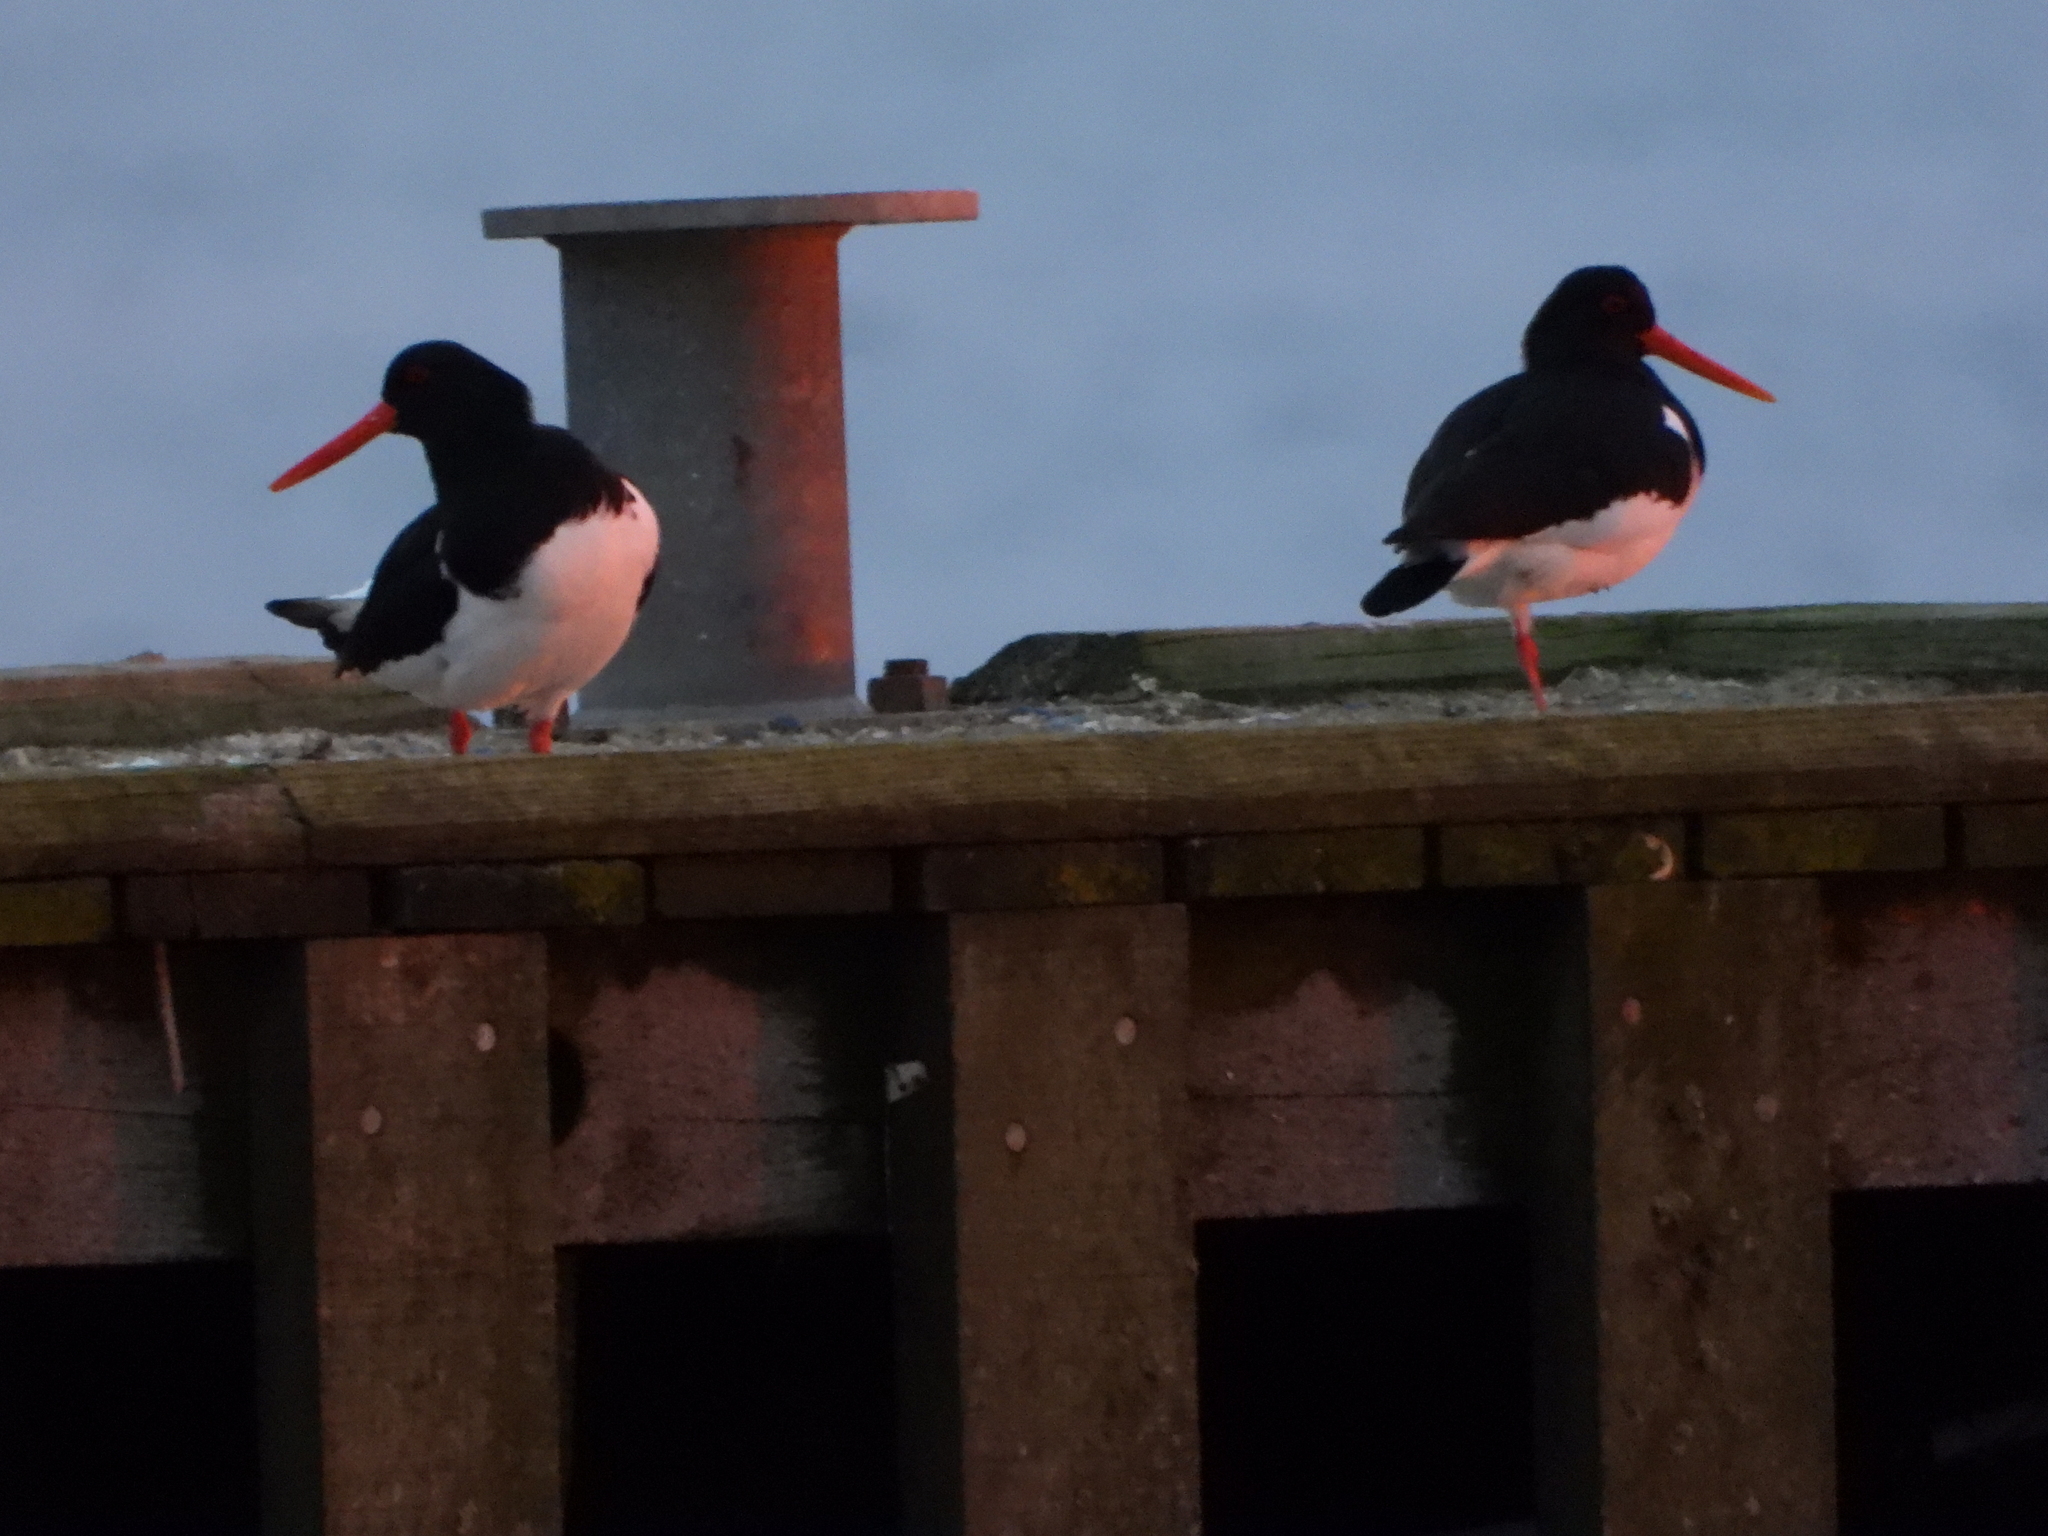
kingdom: Animalia
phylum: Chordata
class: Aves
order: Charadriiformes
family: Haematopodidae
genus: Haematopus
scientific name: Haematopus ostralegus
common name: Eurasian oystercatcher
